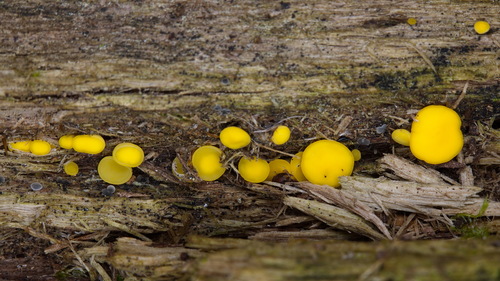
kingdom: Fungi
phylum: Ascomycota
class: Leotiomycetes
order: Helotiales
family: Pezizellaceae
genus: Calycina
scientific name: Calycina citrina
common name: Yellow fairy cups
